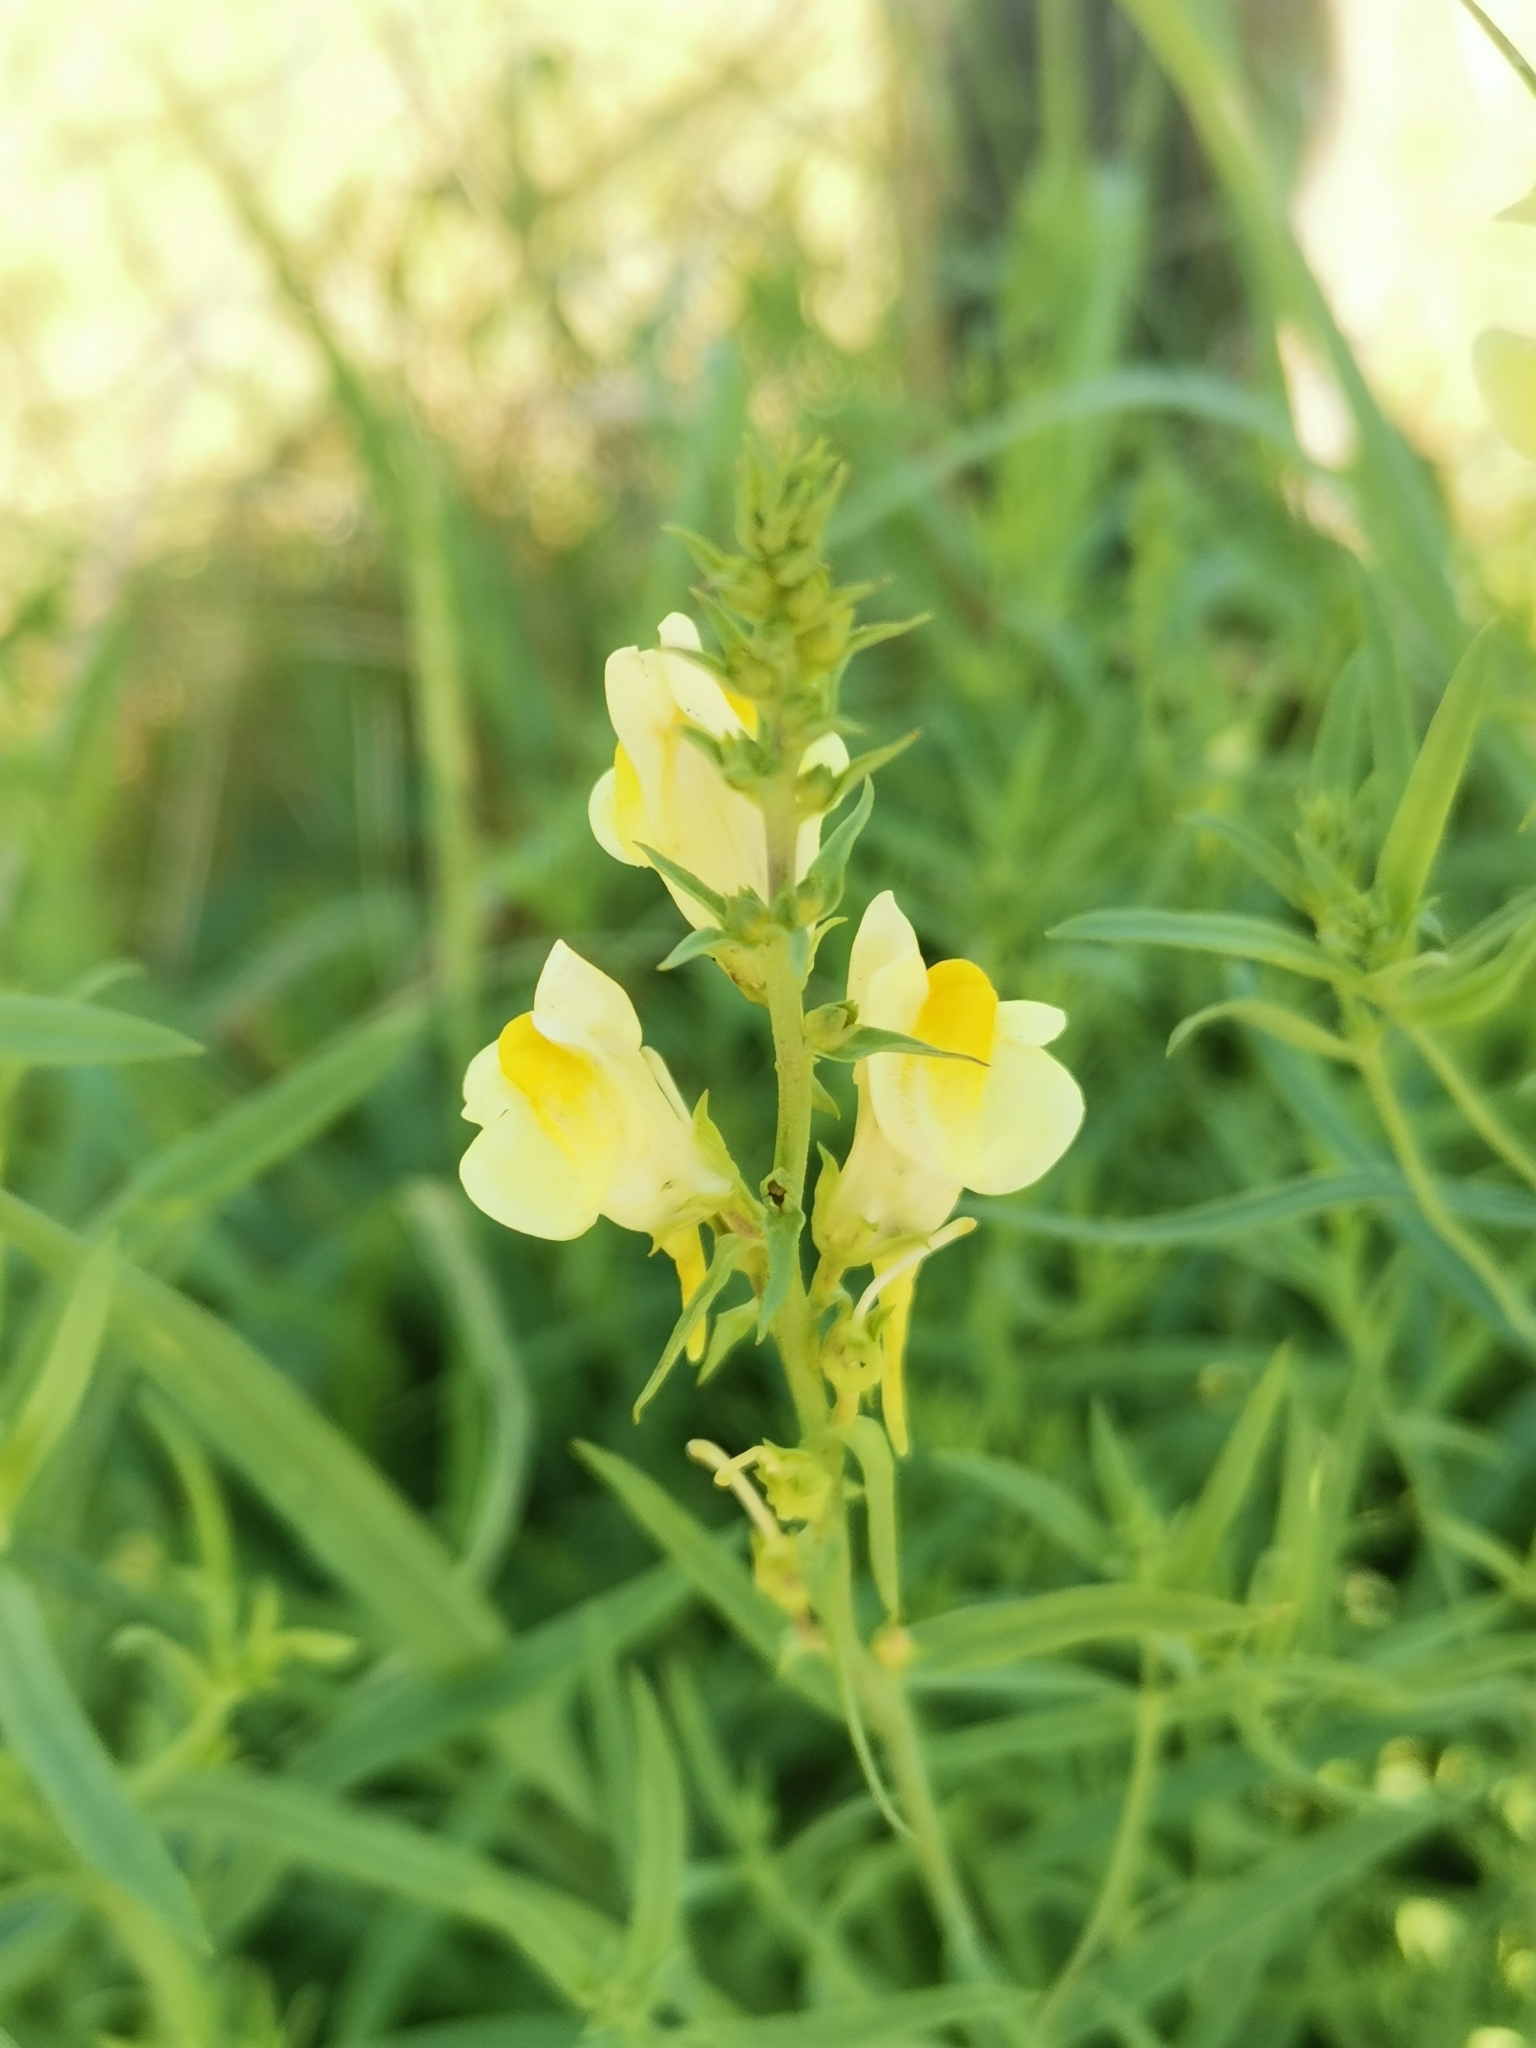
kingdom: Plantae
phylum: Tracheophyta
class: Magnoliopsida
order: Lamiales
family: Plantaginaceae
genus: Linaria
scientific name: Linaria vulgaris
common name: Butter and eggs
